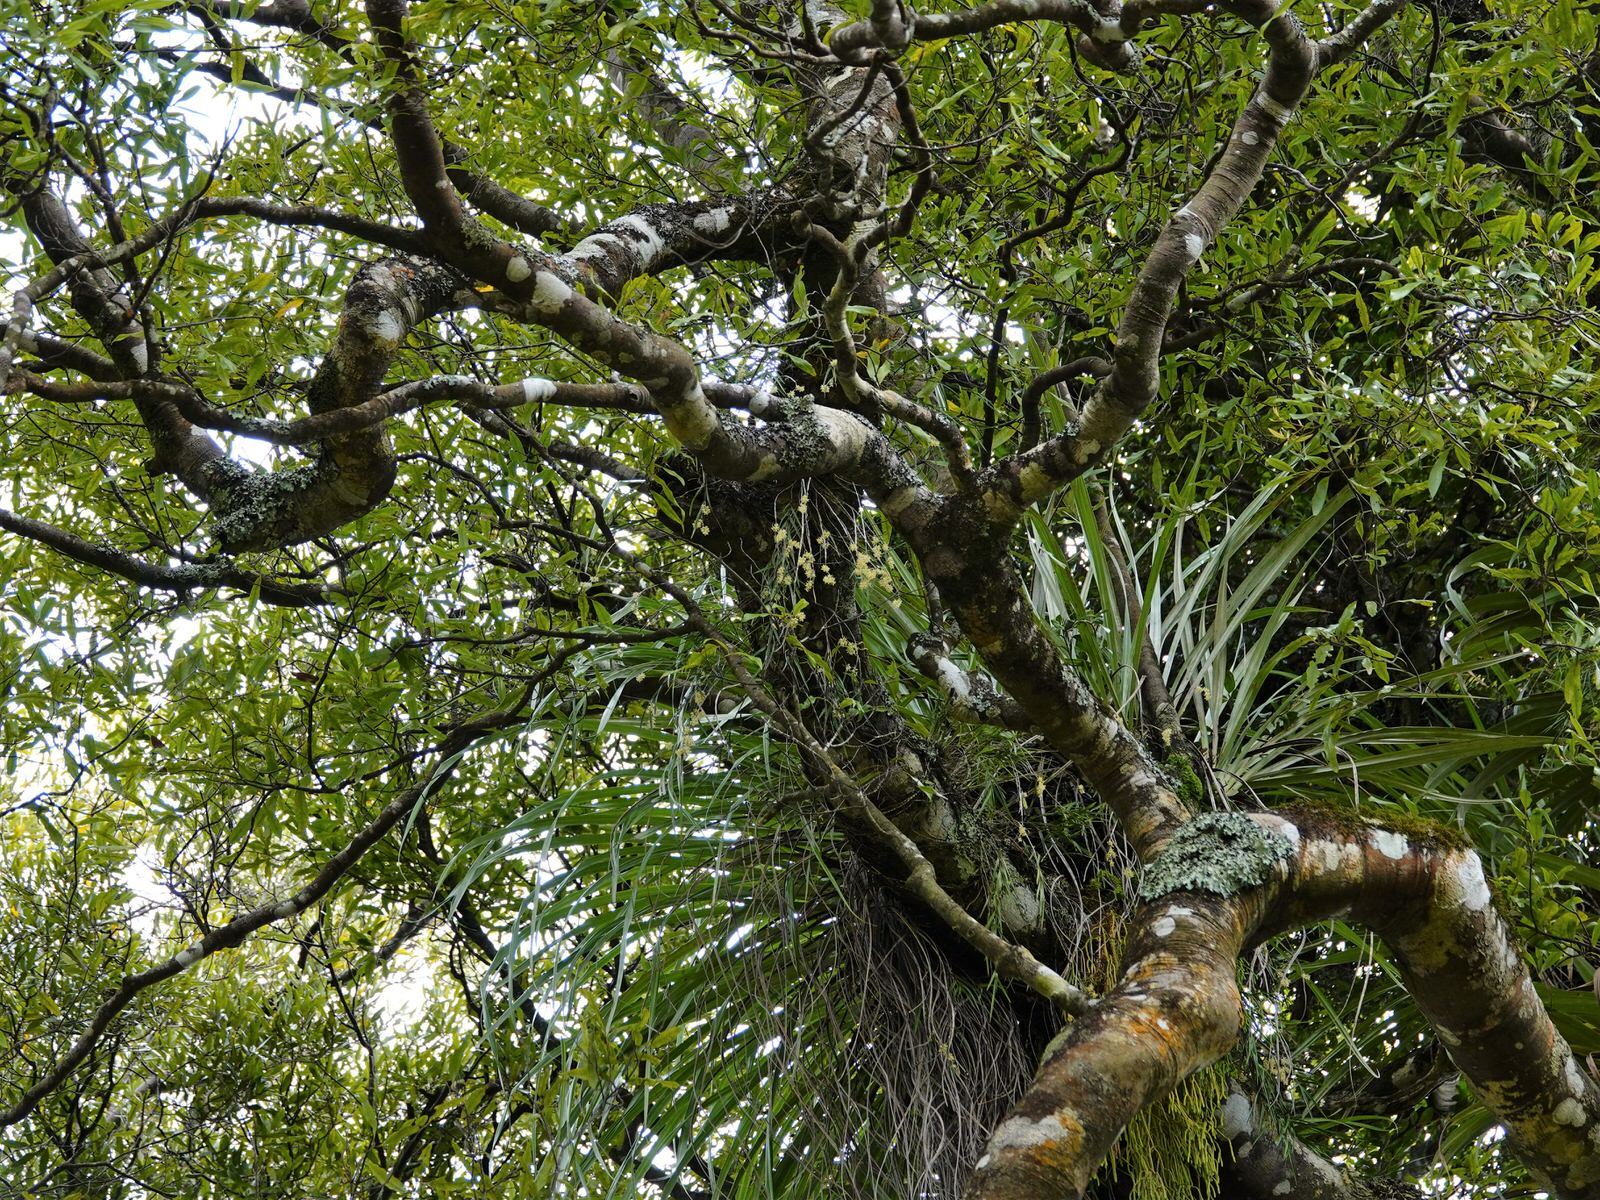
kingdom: Plantae
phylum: Tracheophyta
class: Liliopsida
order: Asparagales
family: Orchidaceae
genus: Earina
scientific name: Earina mucronata
